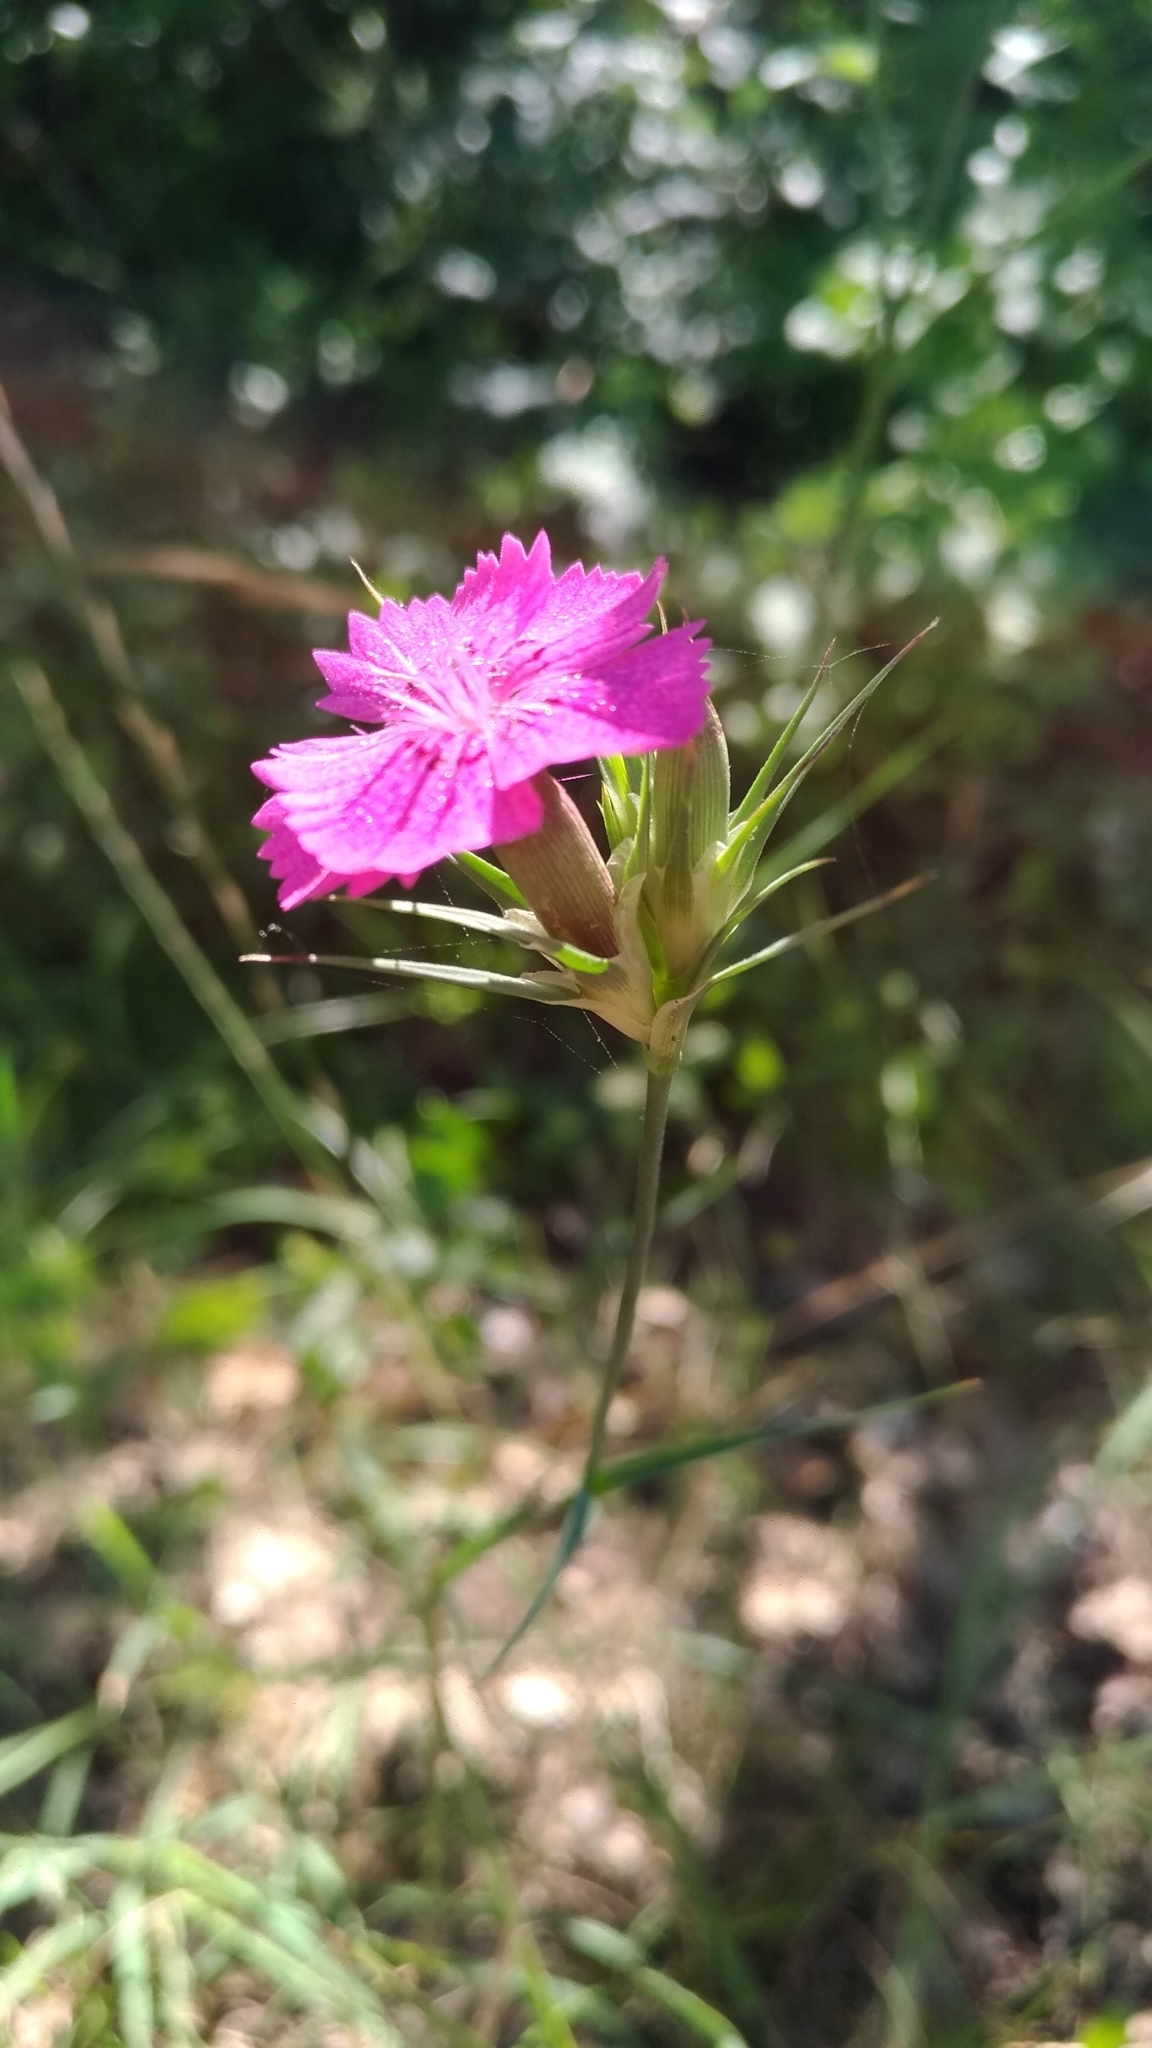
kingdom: Plantae
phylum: Tracheophyta
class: Magnoliopsida
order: Caryophyllales
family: Caryophyllaceae
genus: Dianthus
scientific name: Dianthus balbisii
